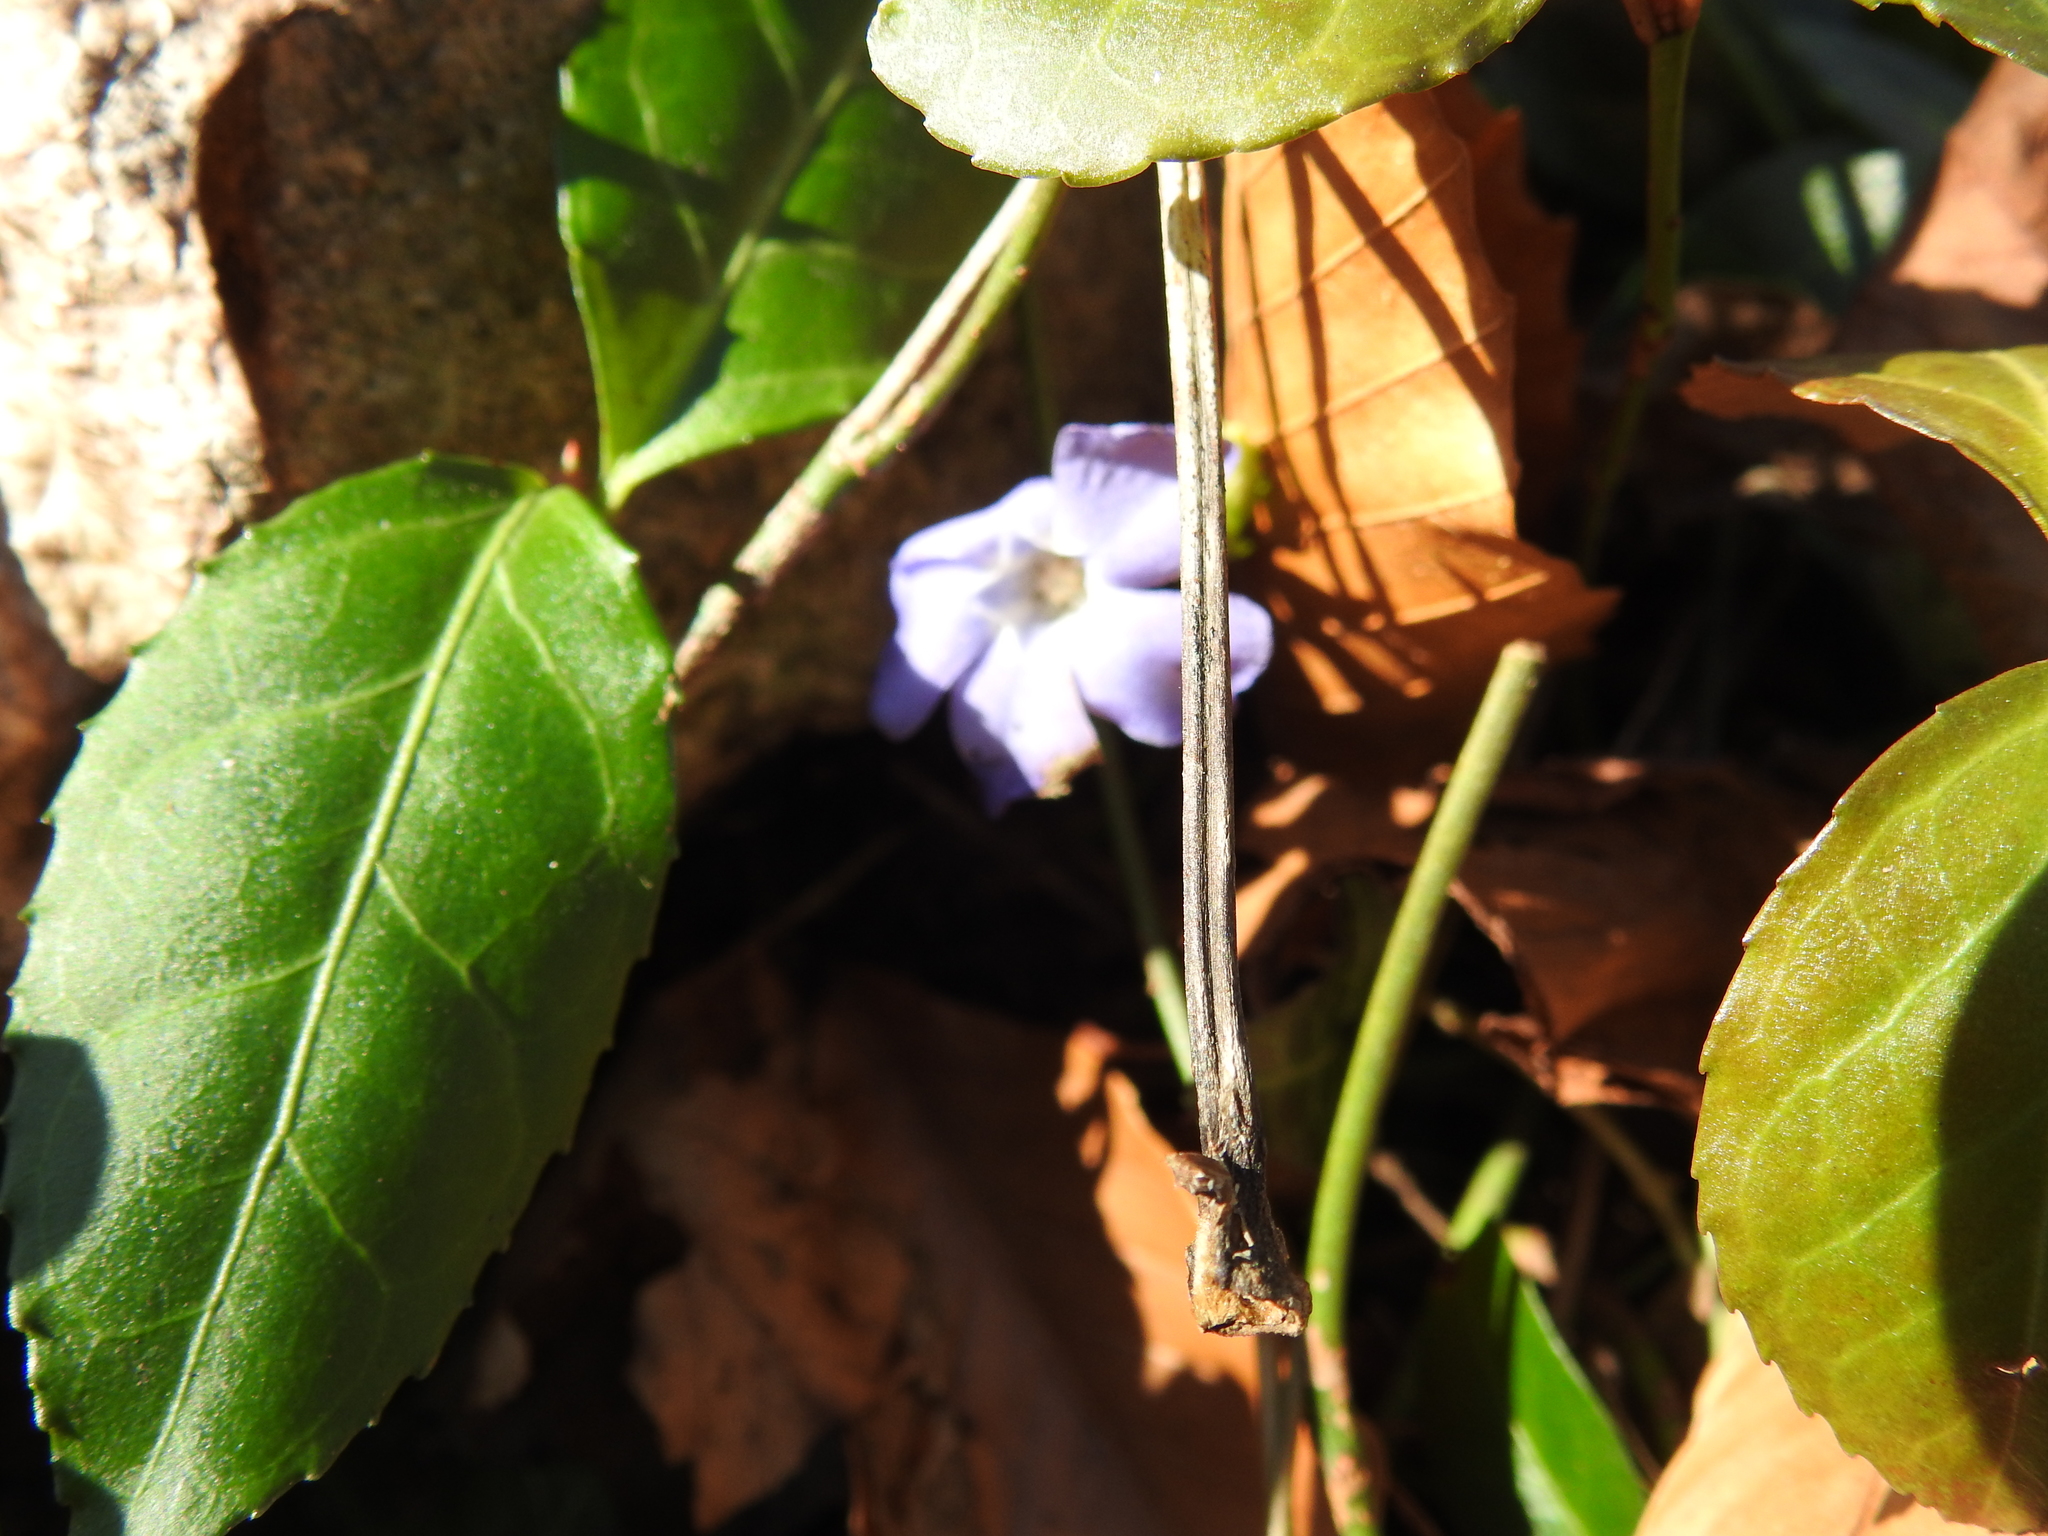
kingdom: Plantae
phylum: Tracheophyta
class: Magnoliopsida
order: Gentianales
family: Apocynaceae
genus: Vinca
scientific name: Vinca minor
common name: Lesser periwinkle
